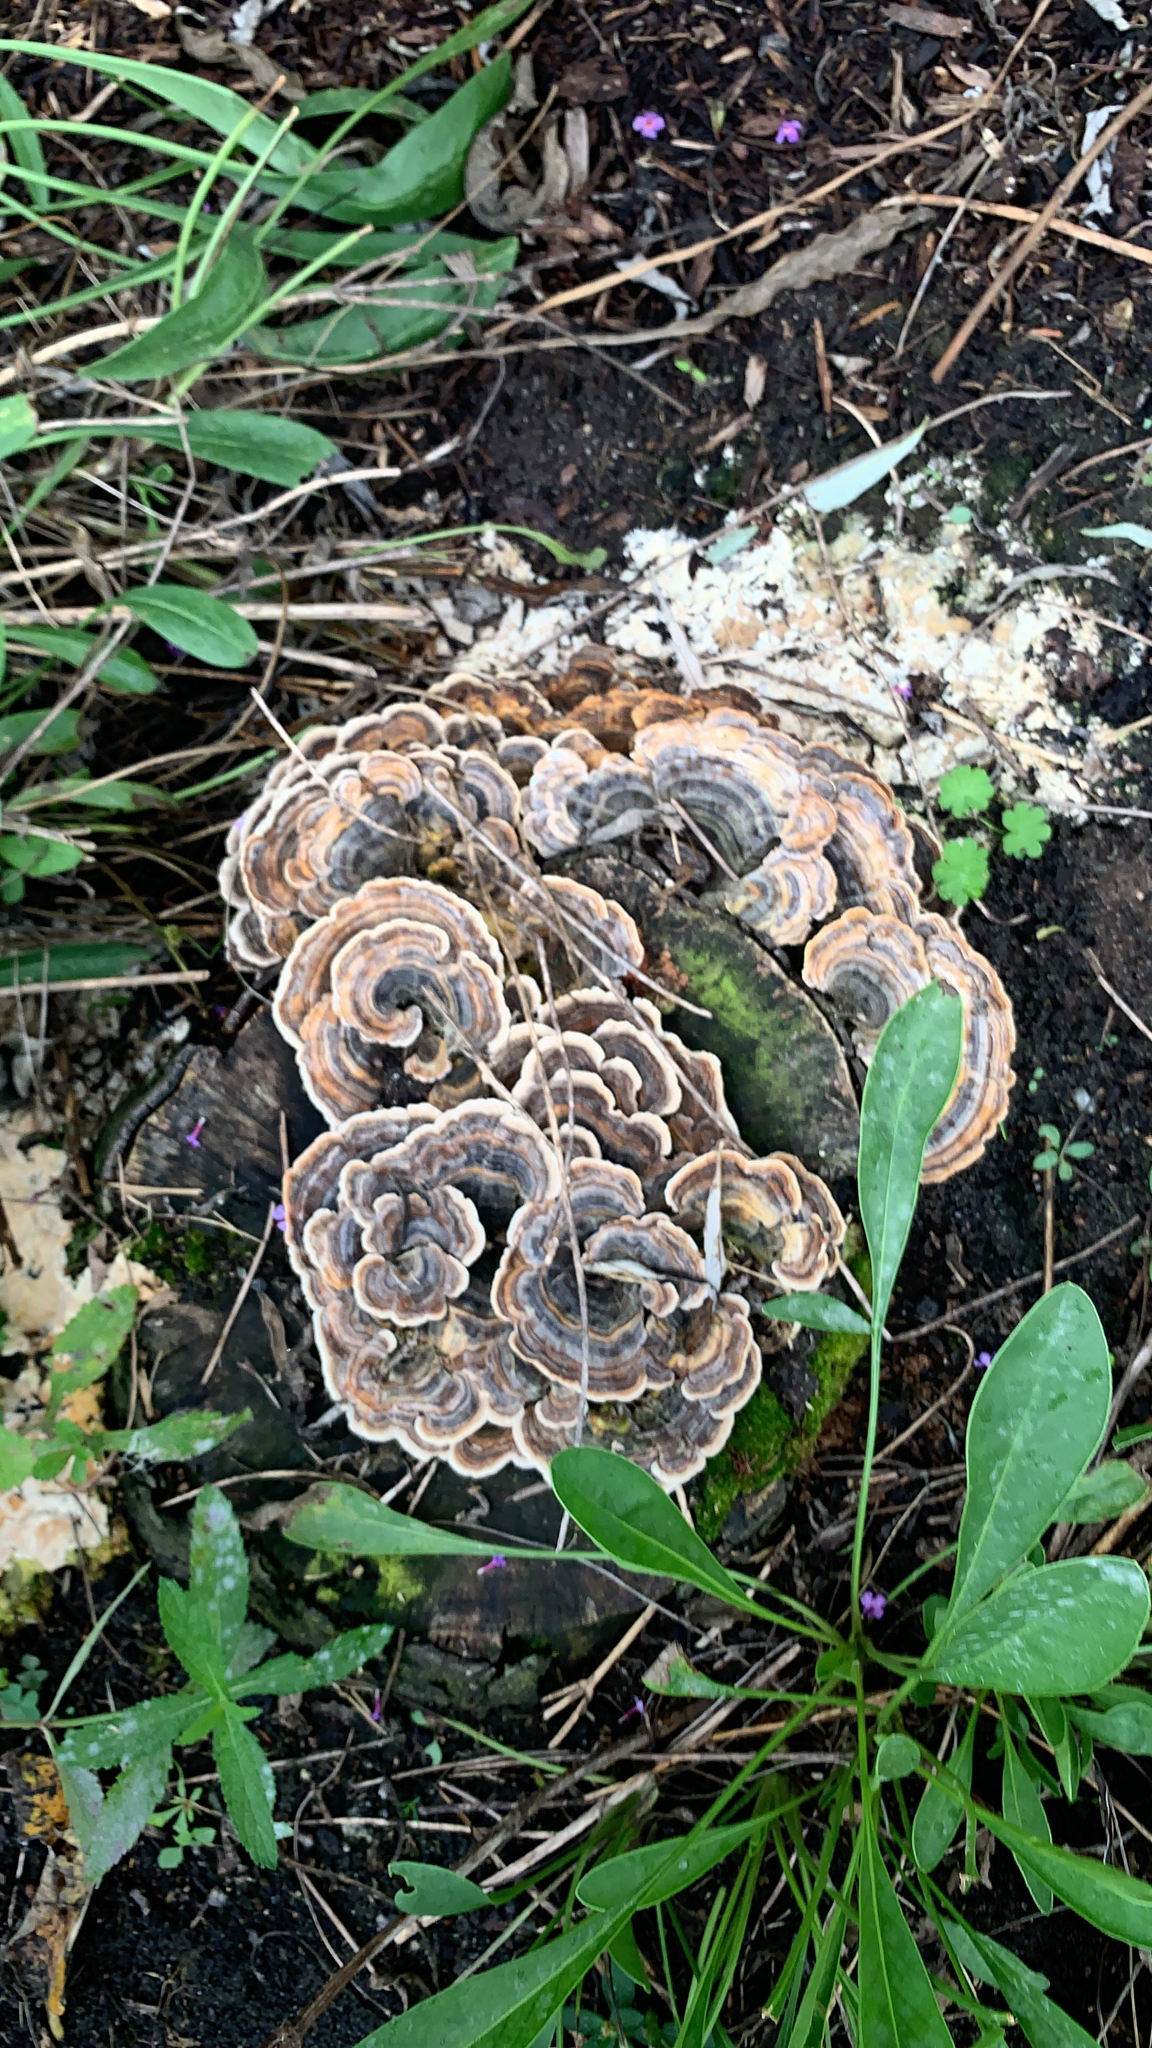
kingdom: Fungi
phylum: Basidiomycota
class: Agaricomycetes
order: Polyporales
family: Polyporaceae
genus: Trametes
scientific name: Trametes versicolor
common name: Turkeytail
